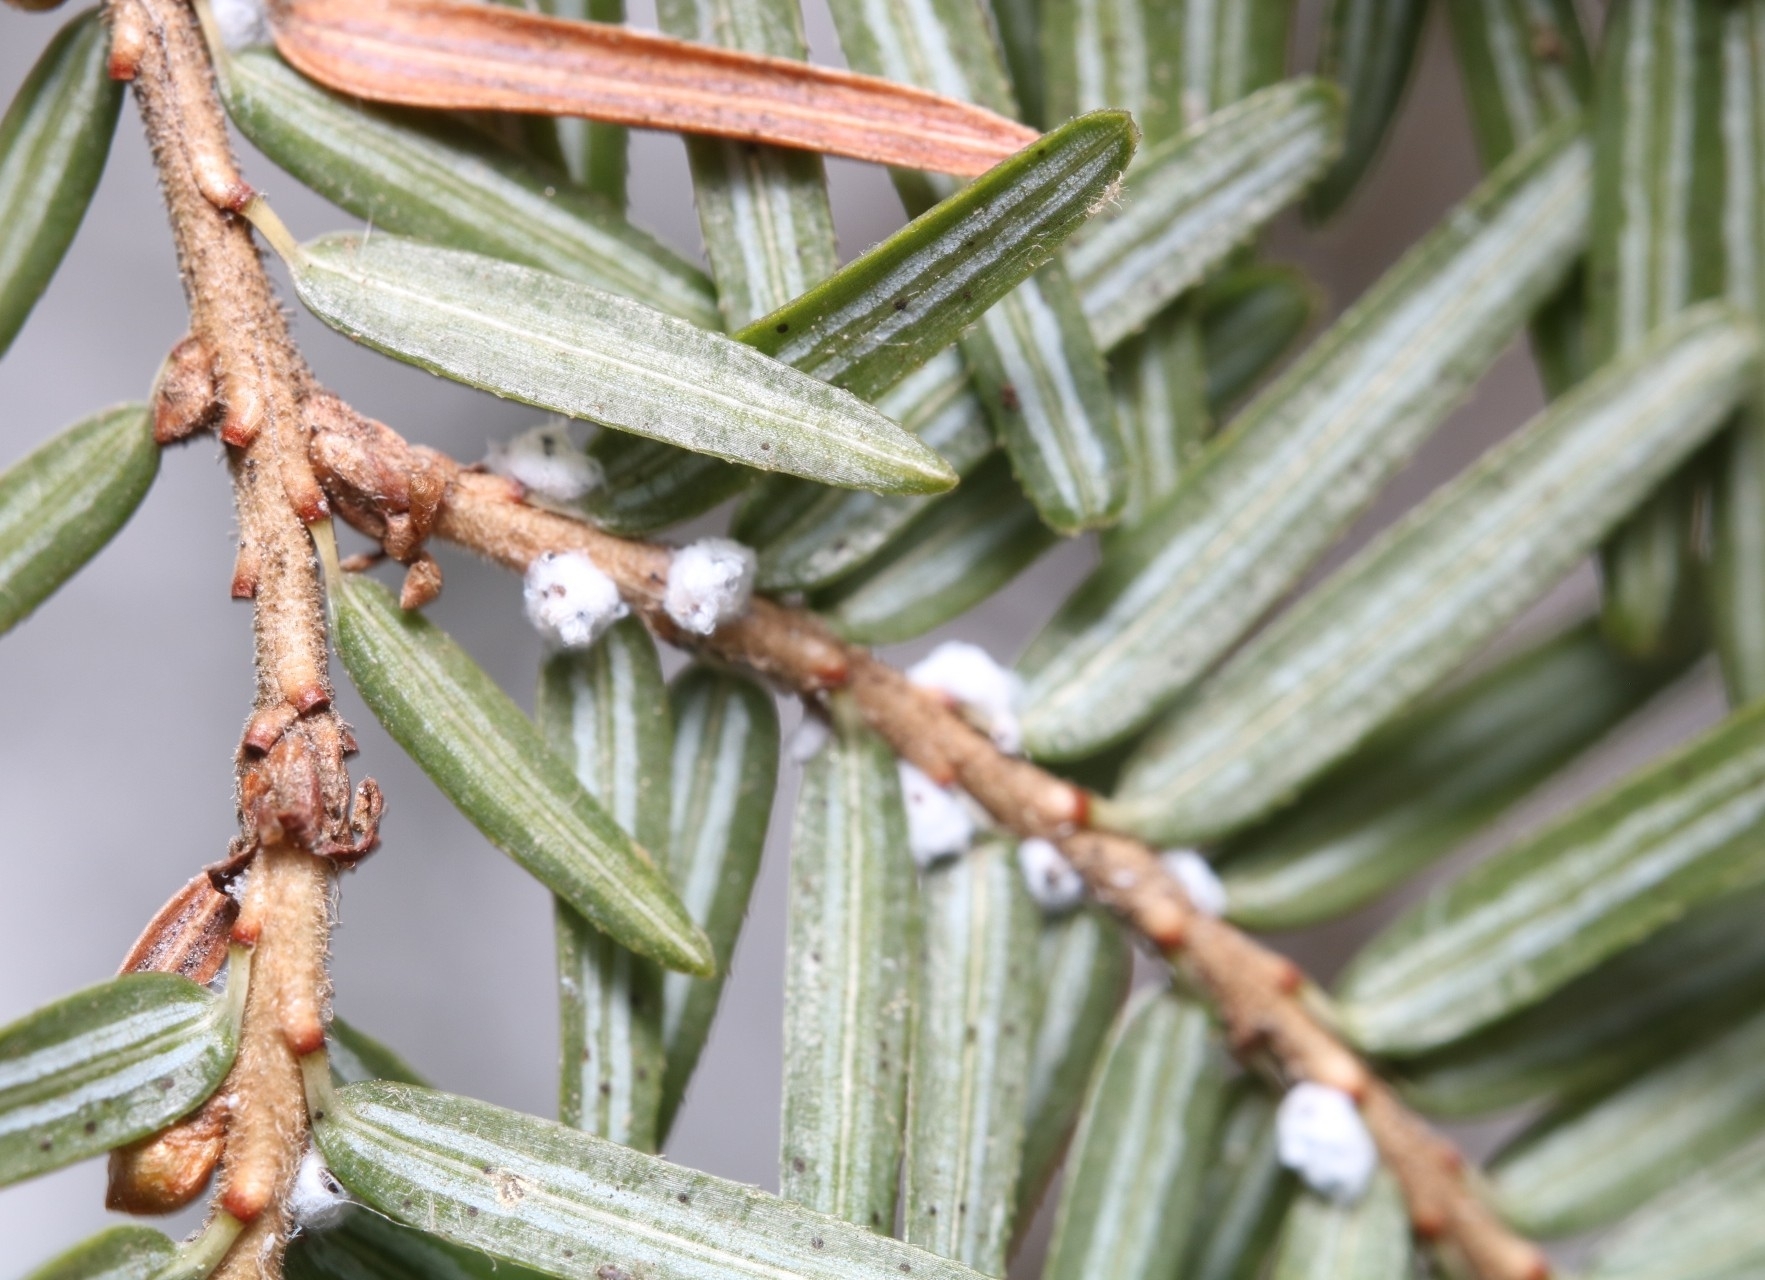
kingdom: Animalia
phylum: Arthropoda
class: Insecta
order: Hemiptera
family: Adelgidae
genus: Adelges
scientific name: Adelges tsugae
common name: Hemlock woolly adelgid
